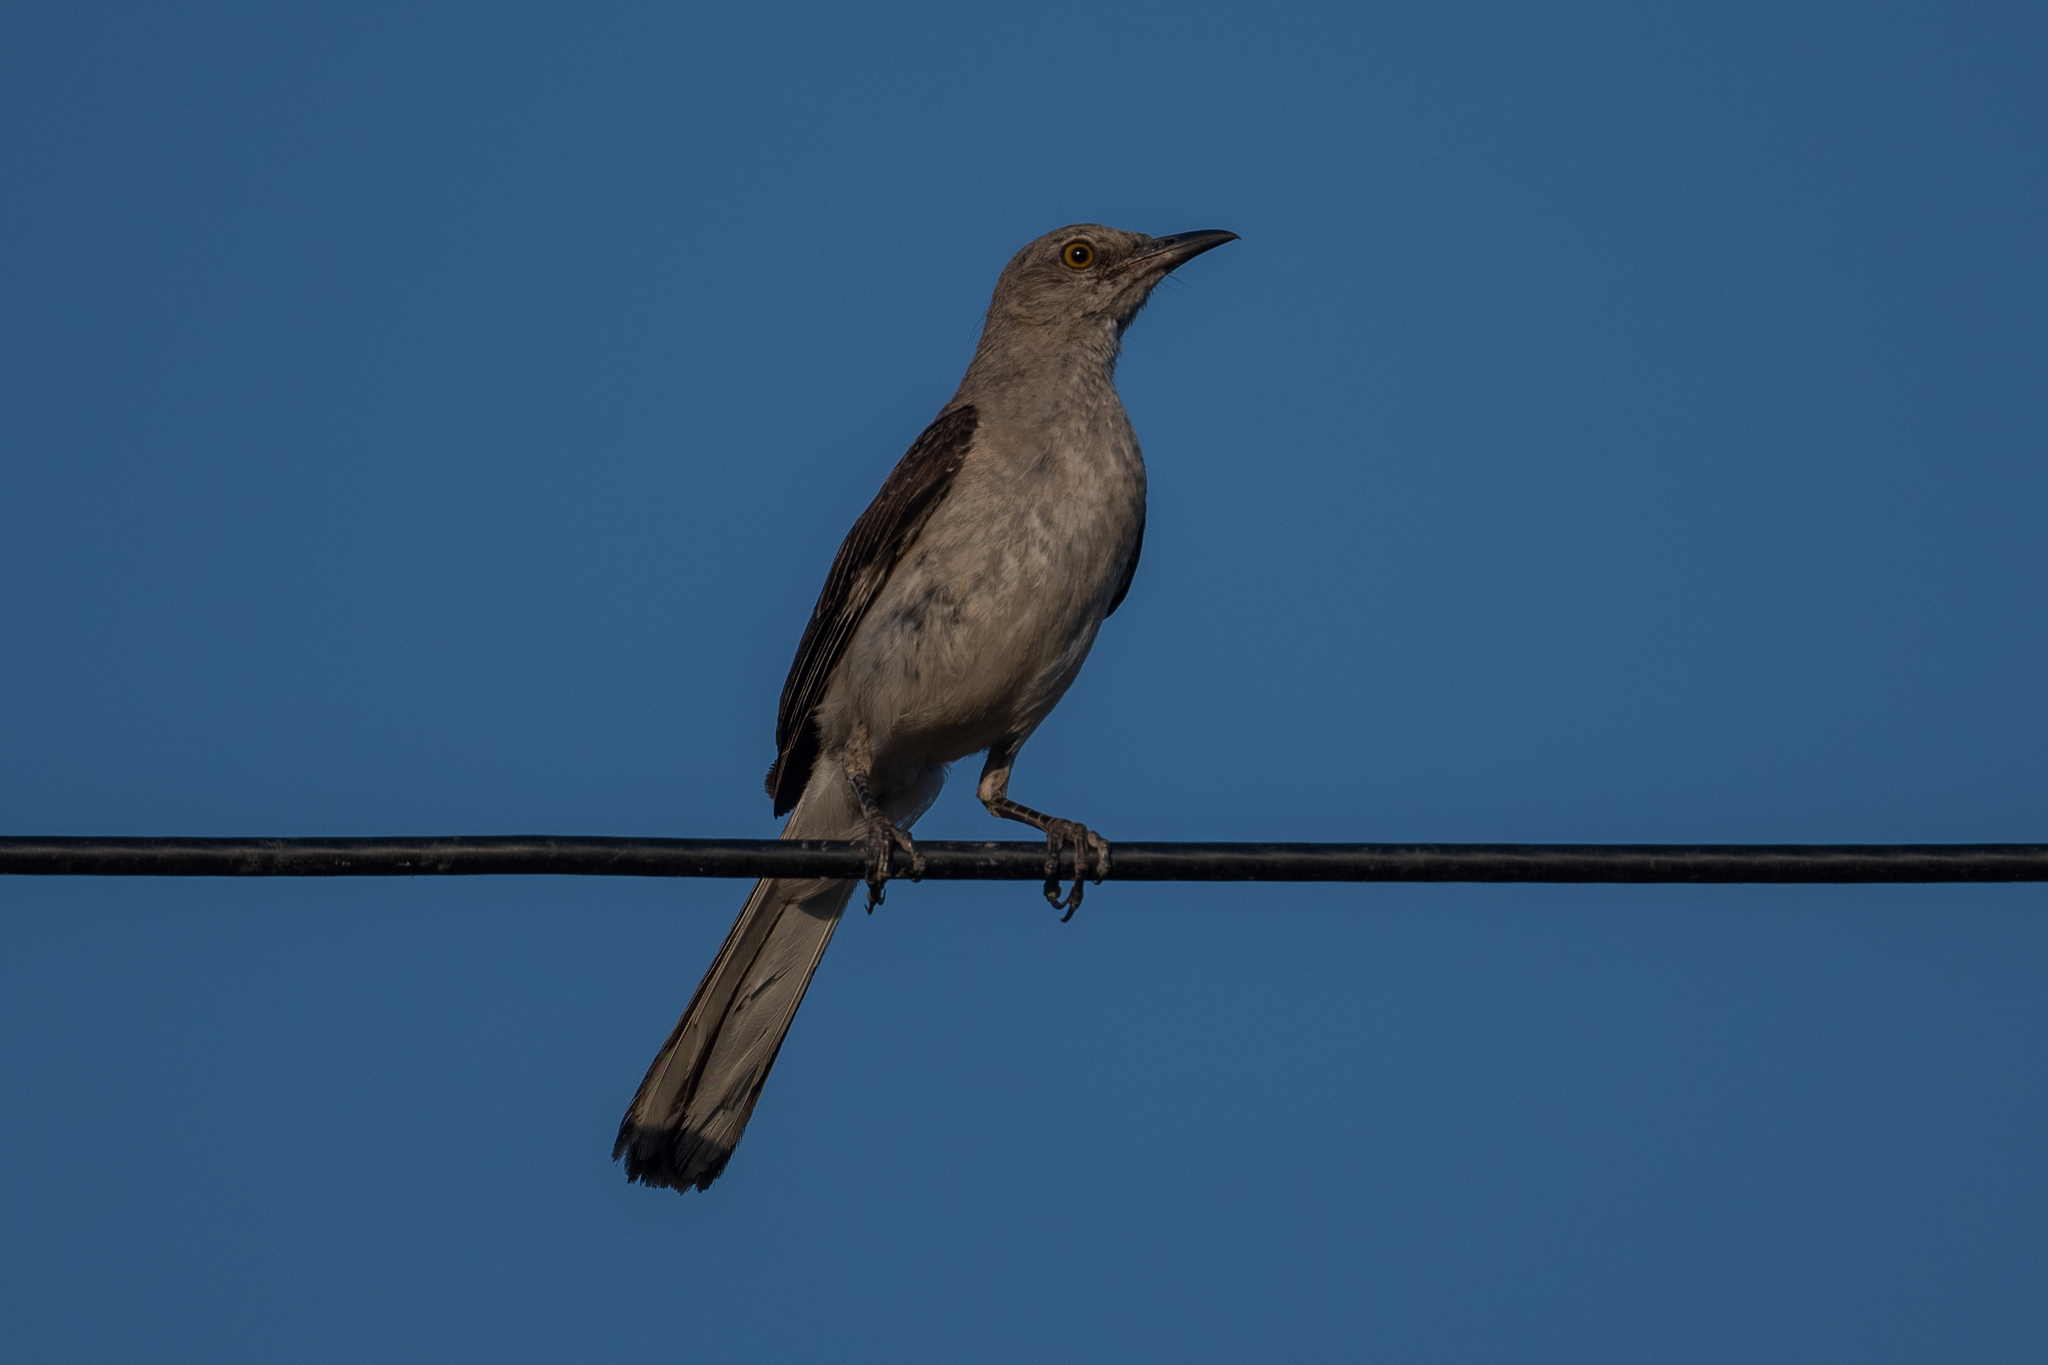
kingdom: Animalia
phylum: Chordata
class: Aves
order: Passeriformes
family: Mimidae
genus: Mimus
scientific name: Mimus polyglottos
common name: Northern mockingbird
